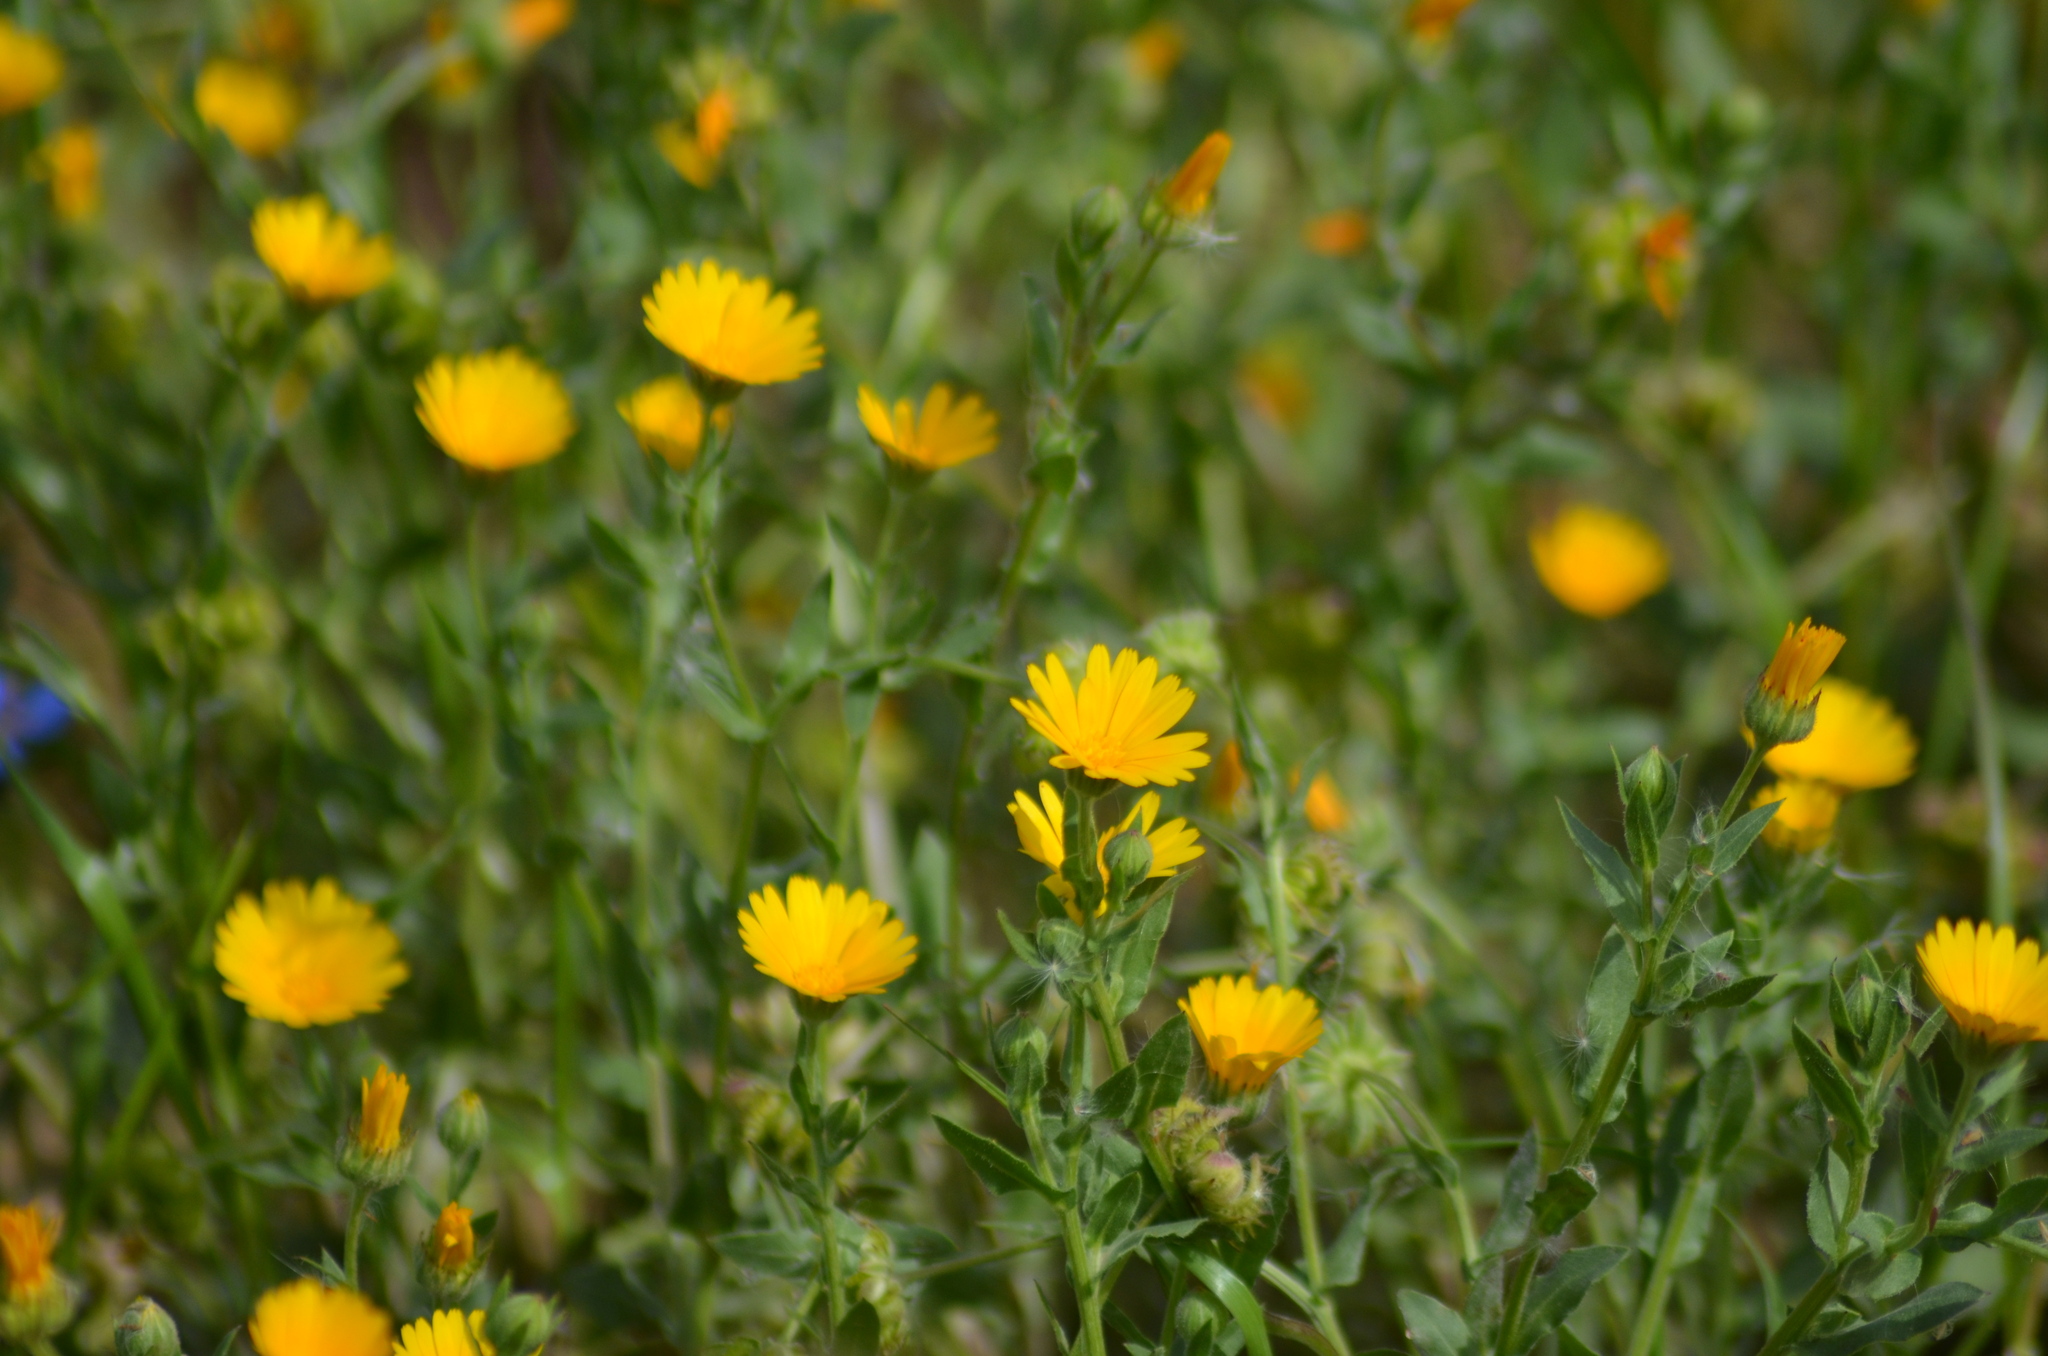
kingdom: Plantae
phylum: Tracheophyta
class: Magnoliopsida
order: Asterales
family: Asteraceae
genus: Calendula
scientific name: Calendula arvensis
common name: Field marigold
